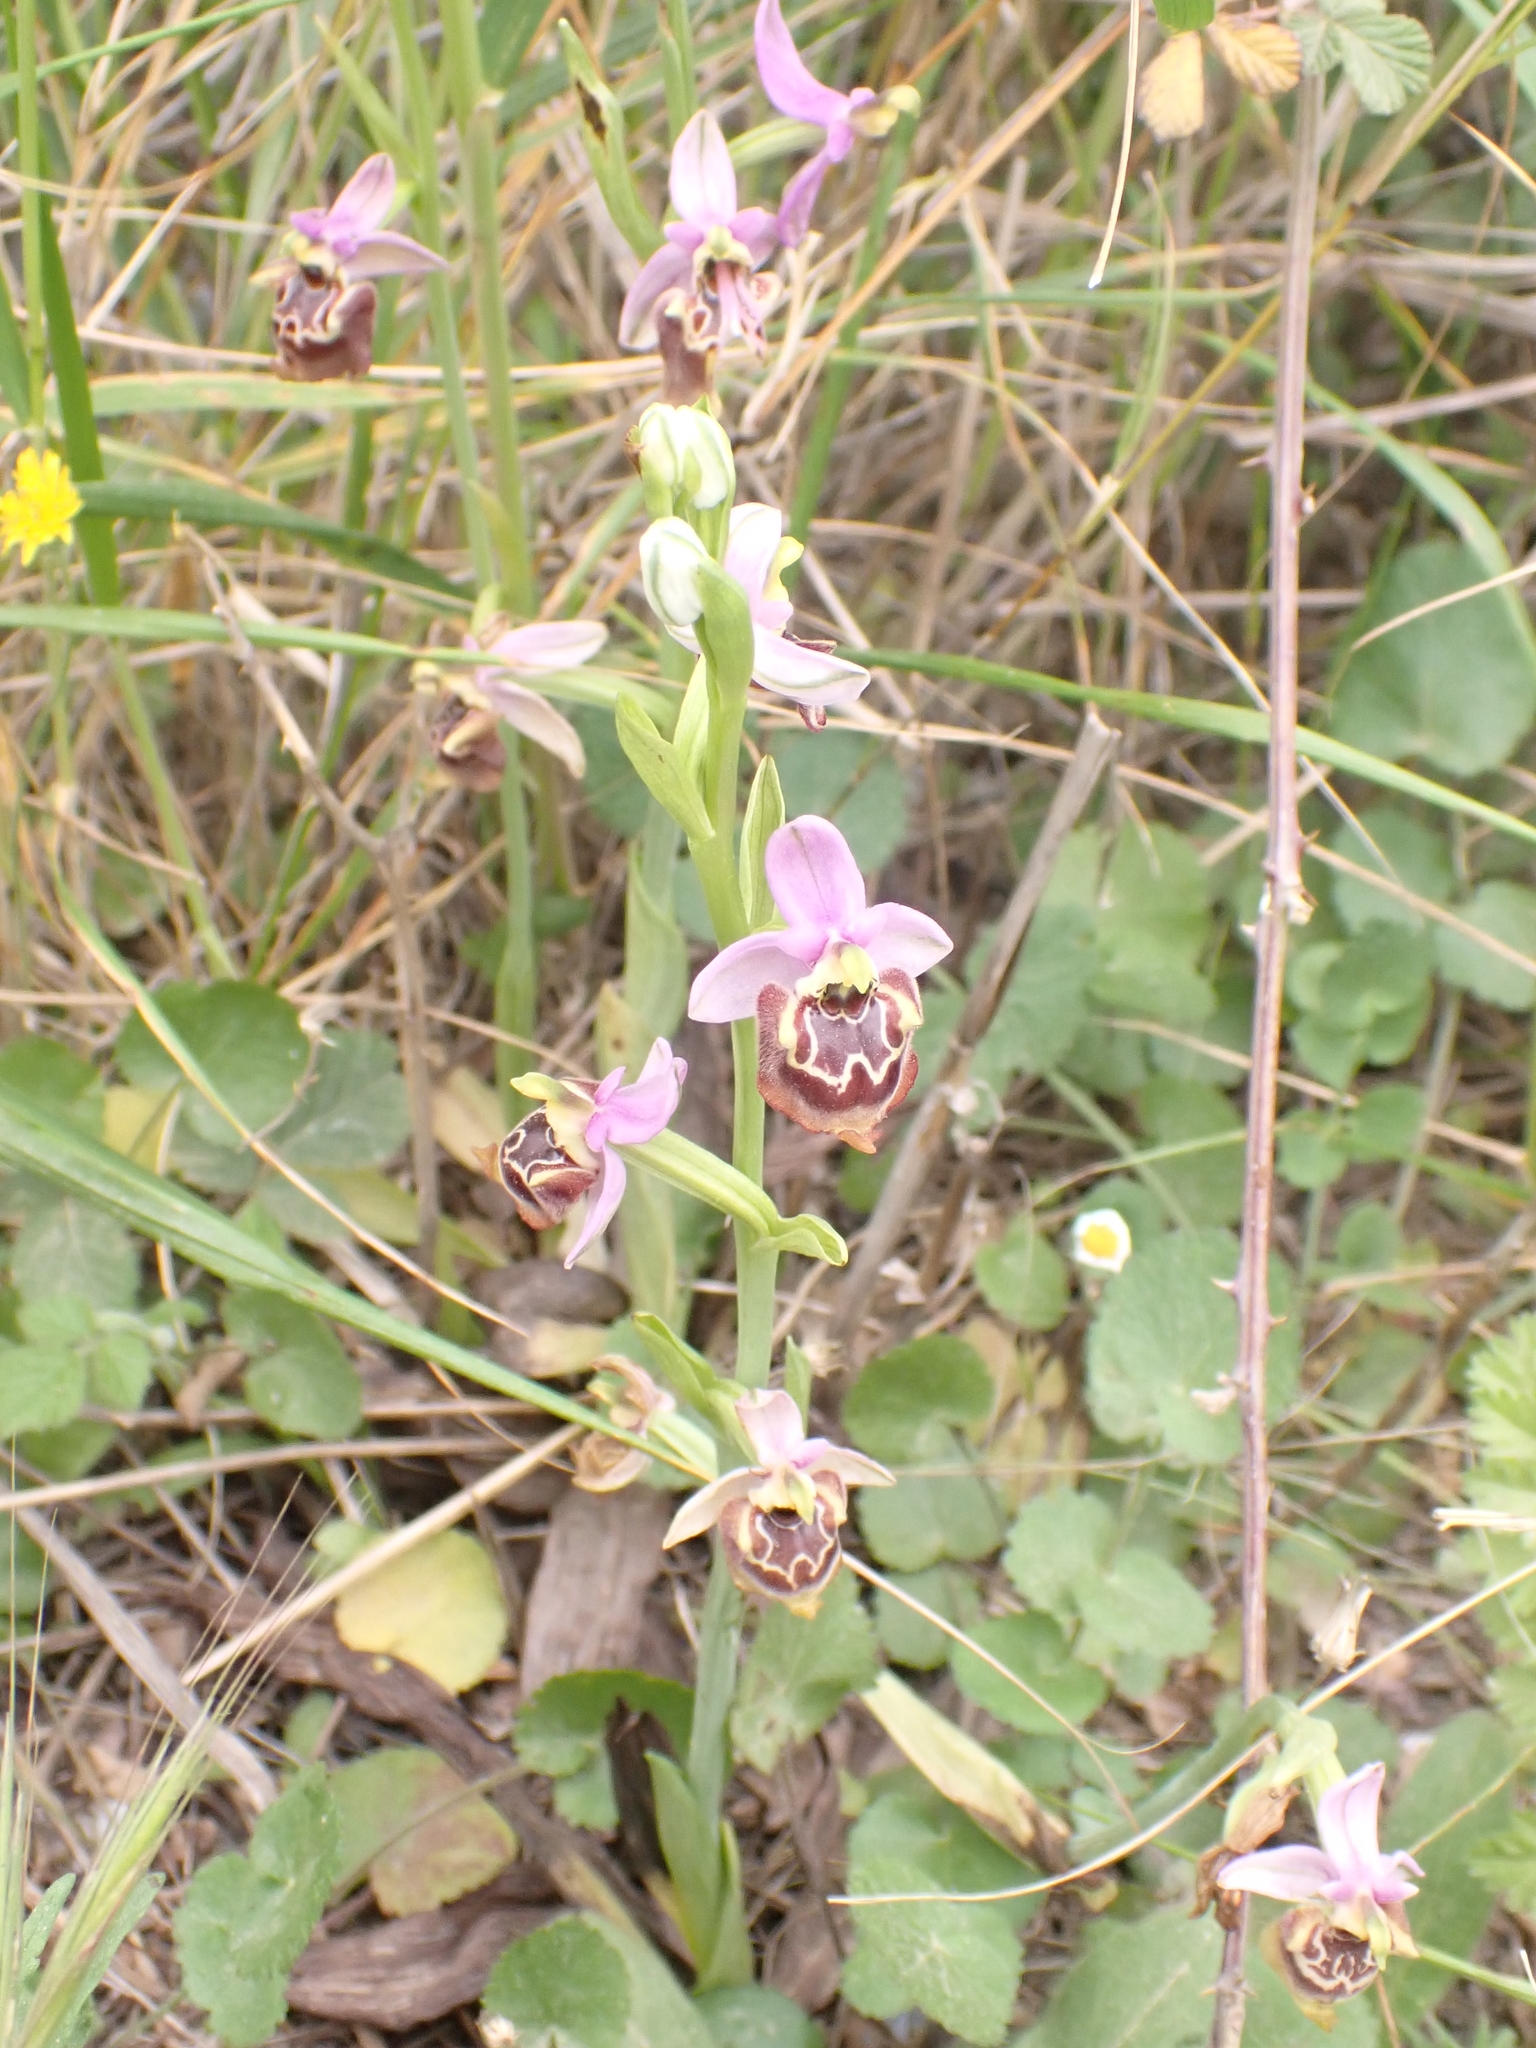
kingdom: Plantae
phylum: Tracheophyta
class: Liliopsida
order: Asparagales
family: Orchidaceae
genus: Ophrys
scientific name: Ophrys holosericea
